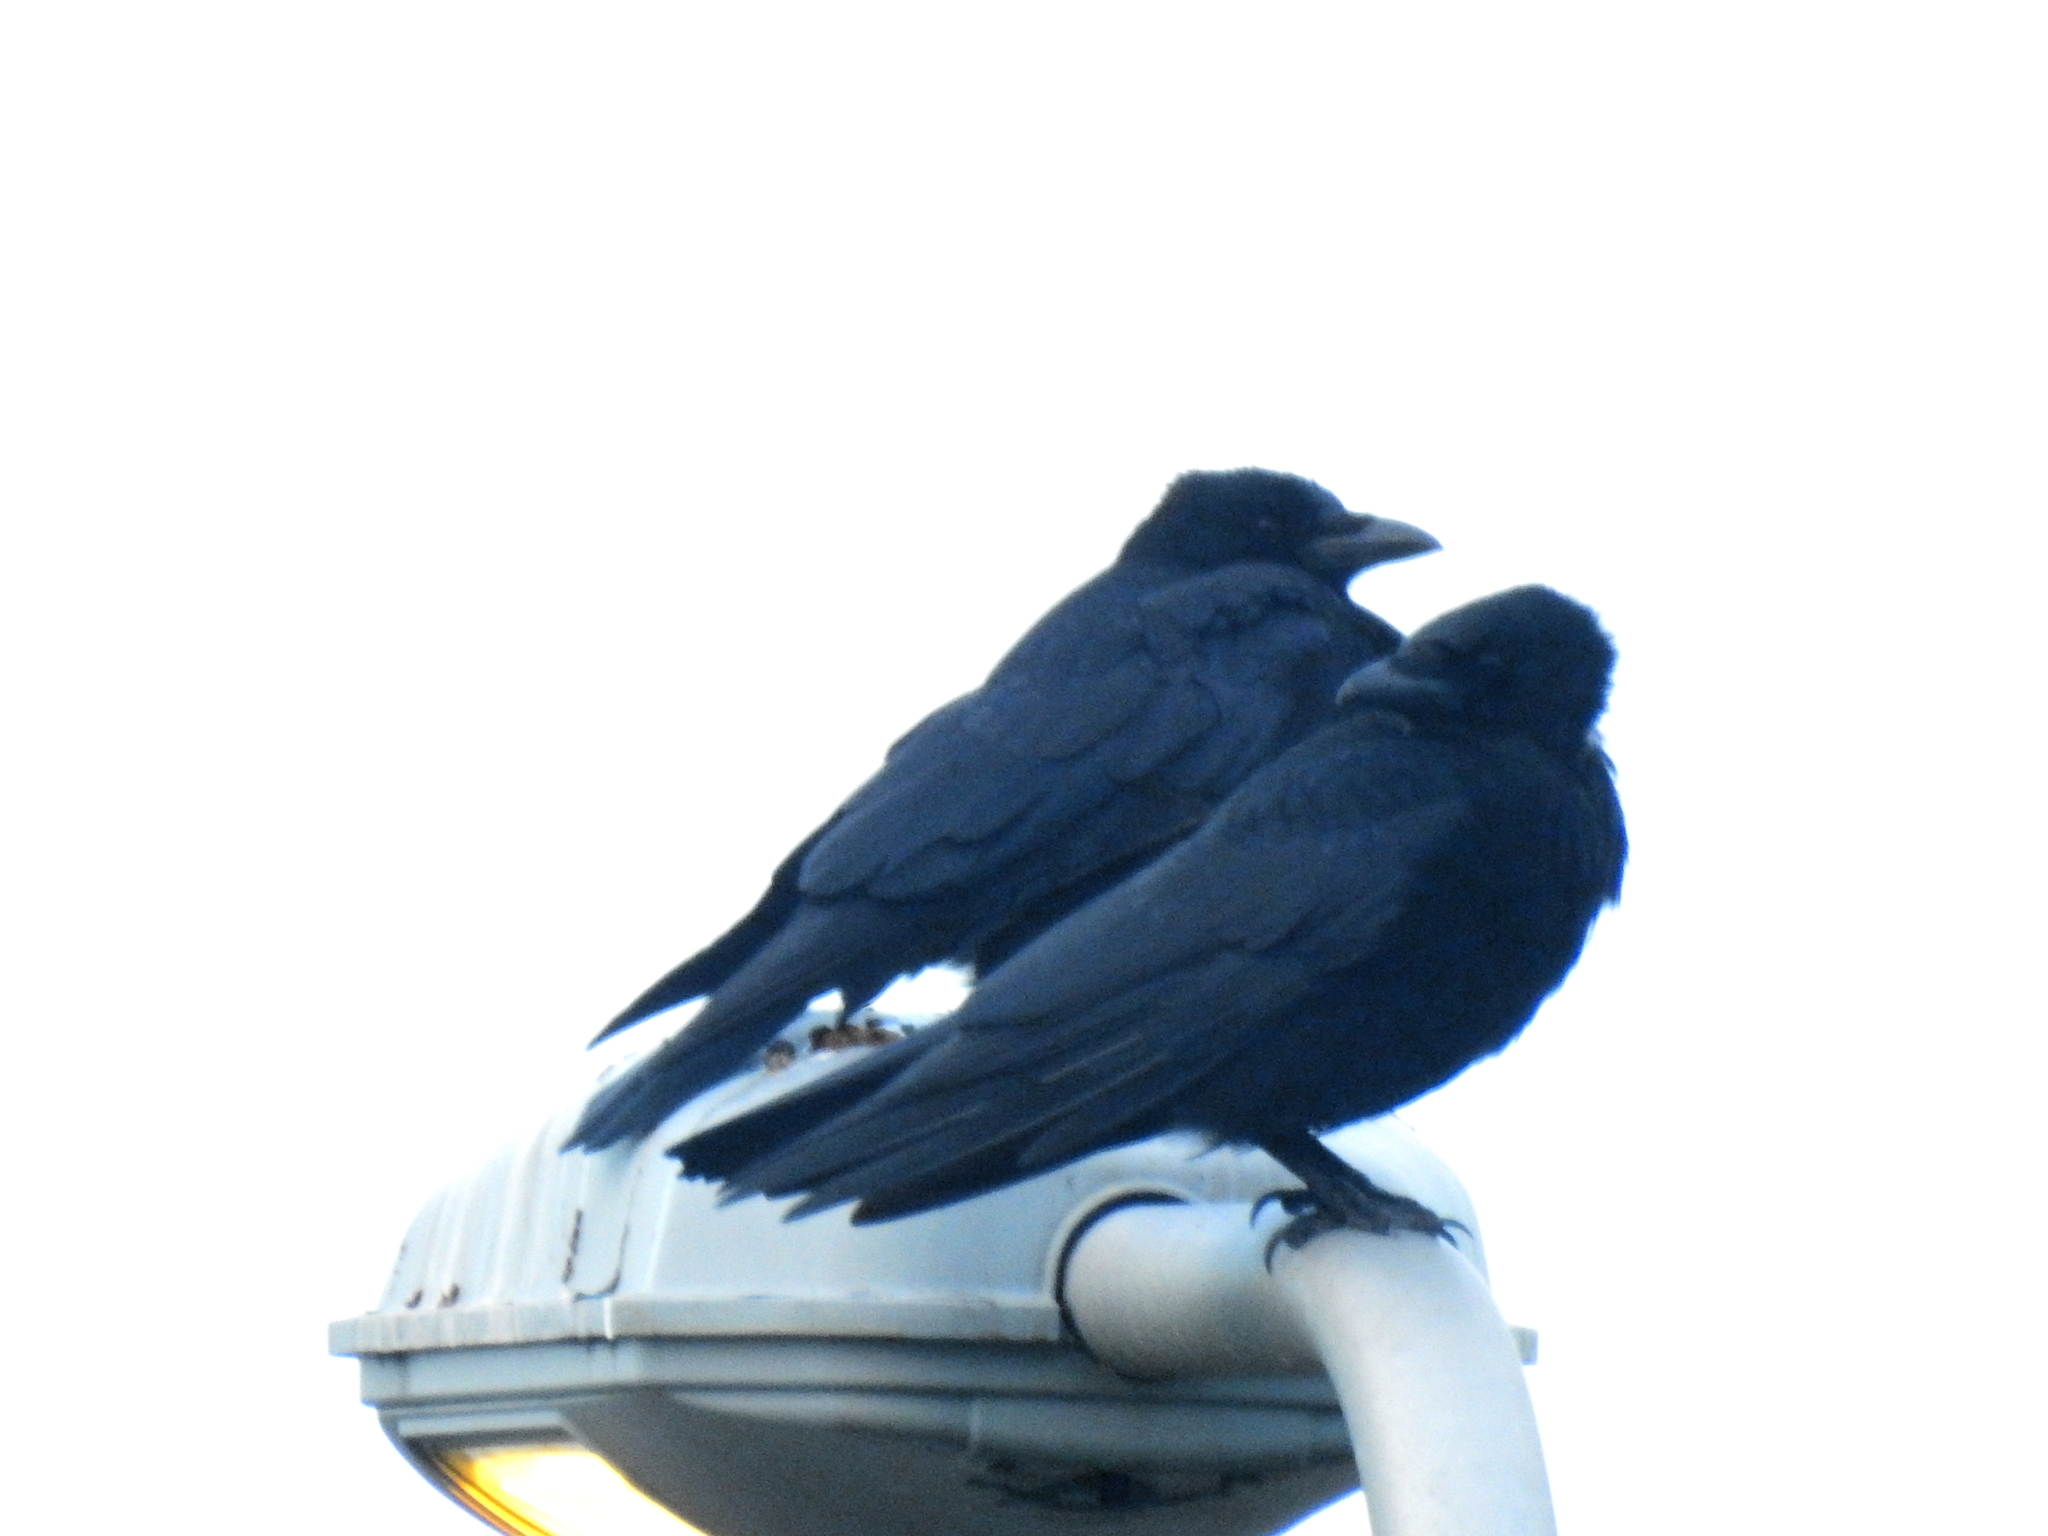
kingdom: Animalia
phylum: Chordata
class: Aves
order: Passeriformes
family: Corvidae
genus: Corvus
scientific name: Corvus corone
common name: Carrion crow
